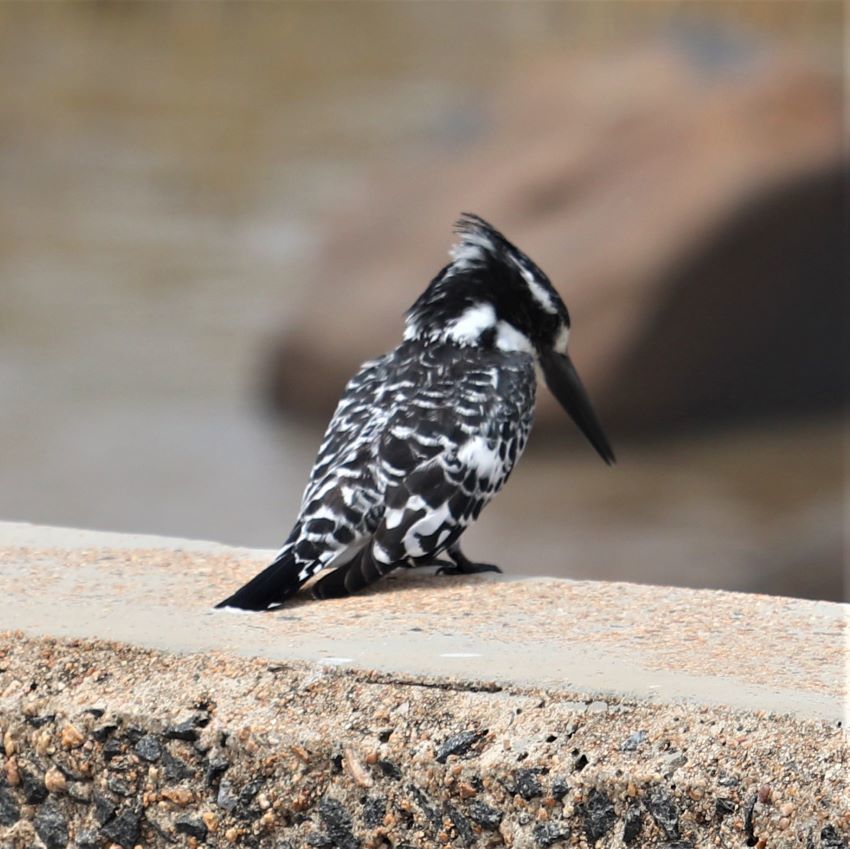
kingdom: Animalia
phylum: Chordata
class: Aves
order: Coraciiformes
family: Alcedinidae
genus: Ceryle
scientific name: Ceryle rudis
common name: Pied kingfisher
